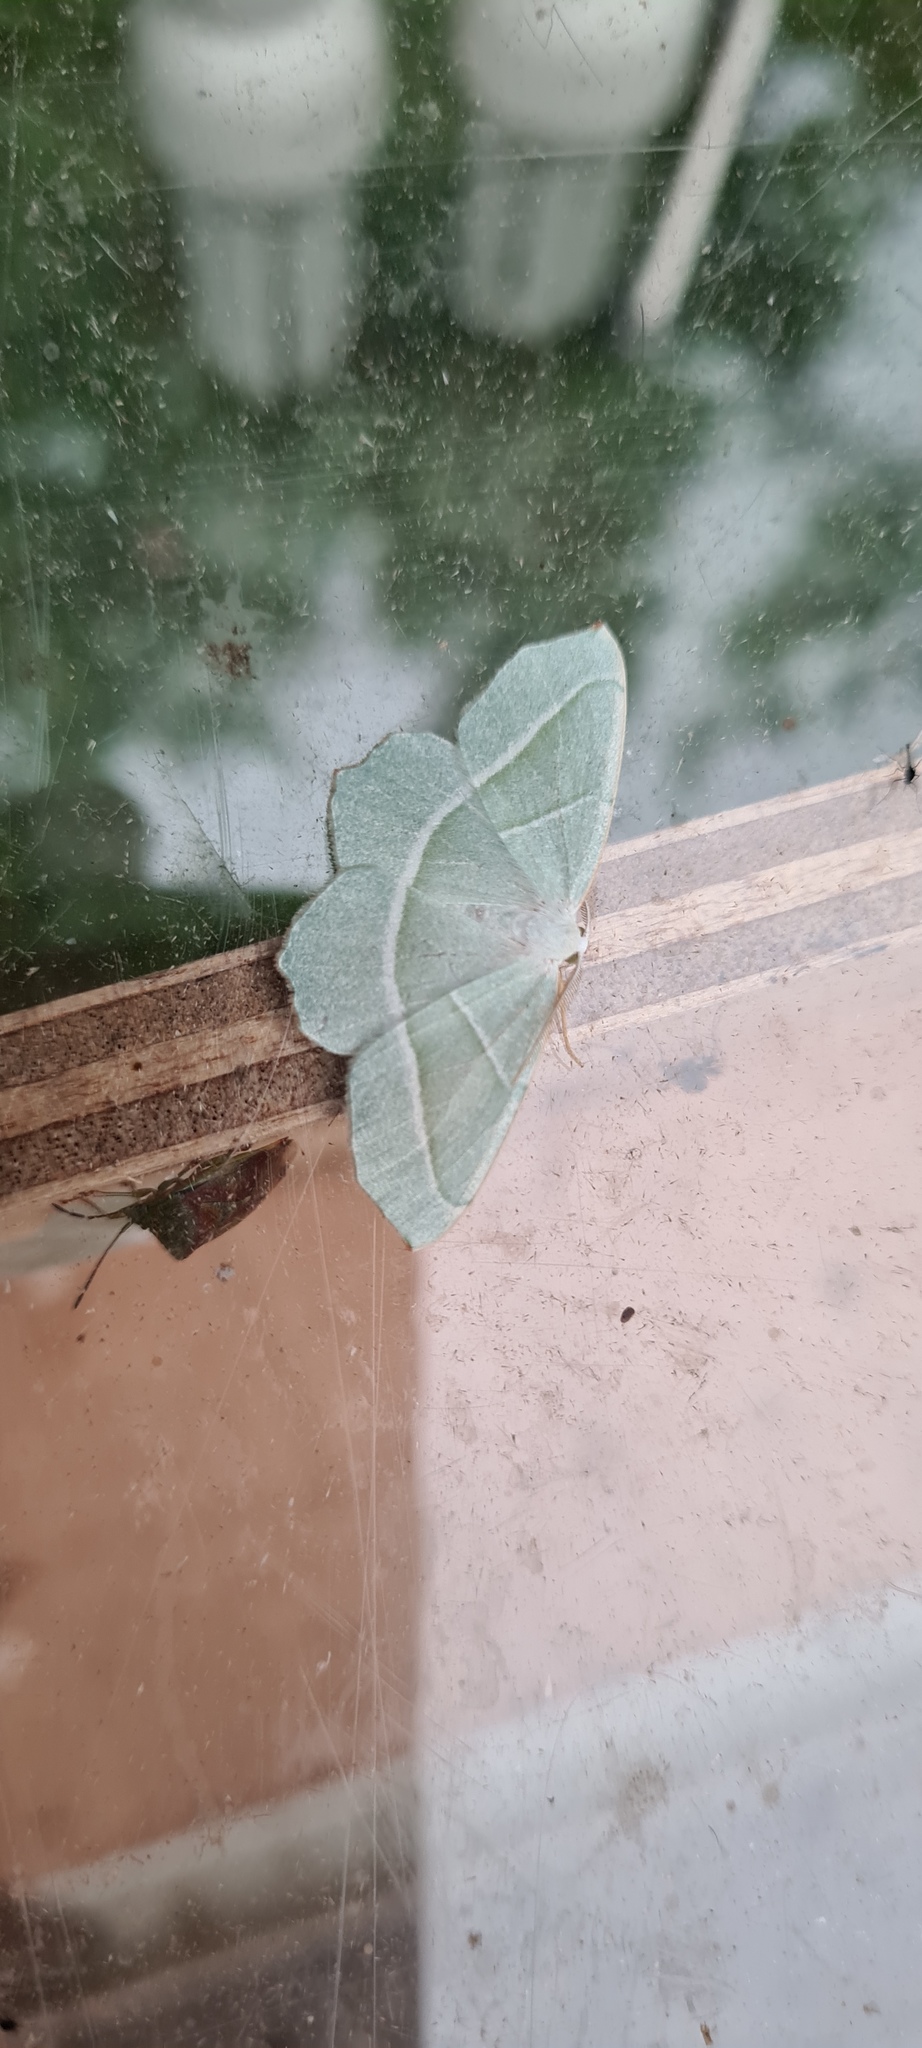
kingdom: Animalia
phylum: Arthropoda
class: Insecta
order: Lepidoptera
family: Geometridae
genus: Campaea
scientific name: Campaea margaritaria
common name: Light emerald
